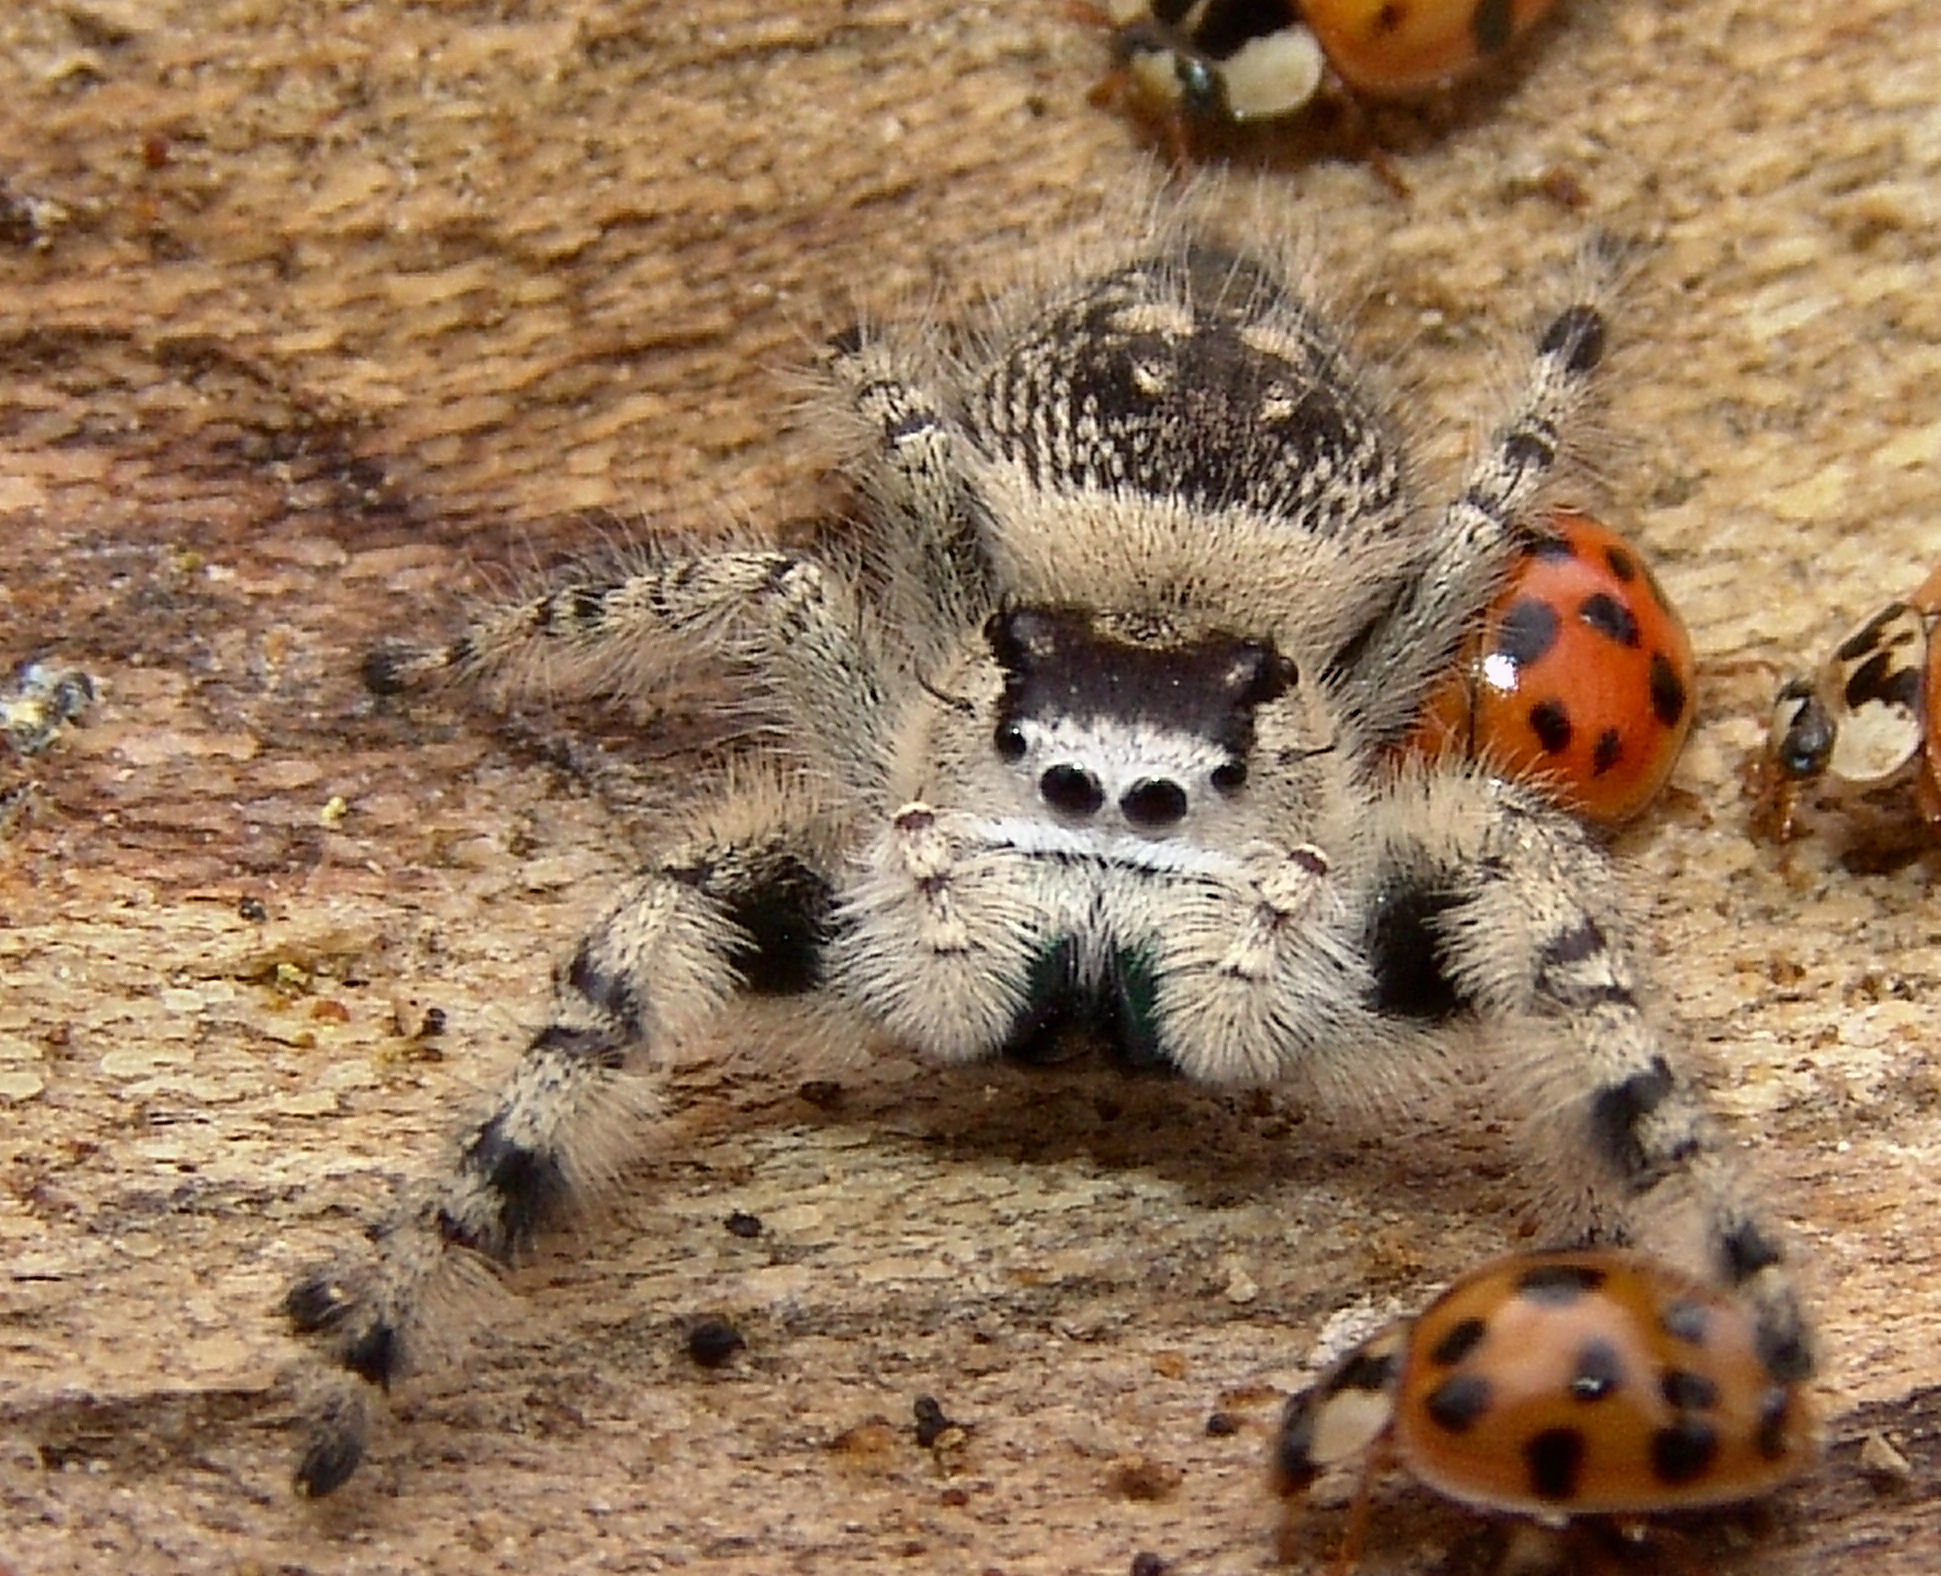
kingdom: Animalia
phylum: Arthropoda
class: Arachnida
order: Araneae
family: Salticidae
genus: Phidippus
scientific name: Phidippus otiosus
